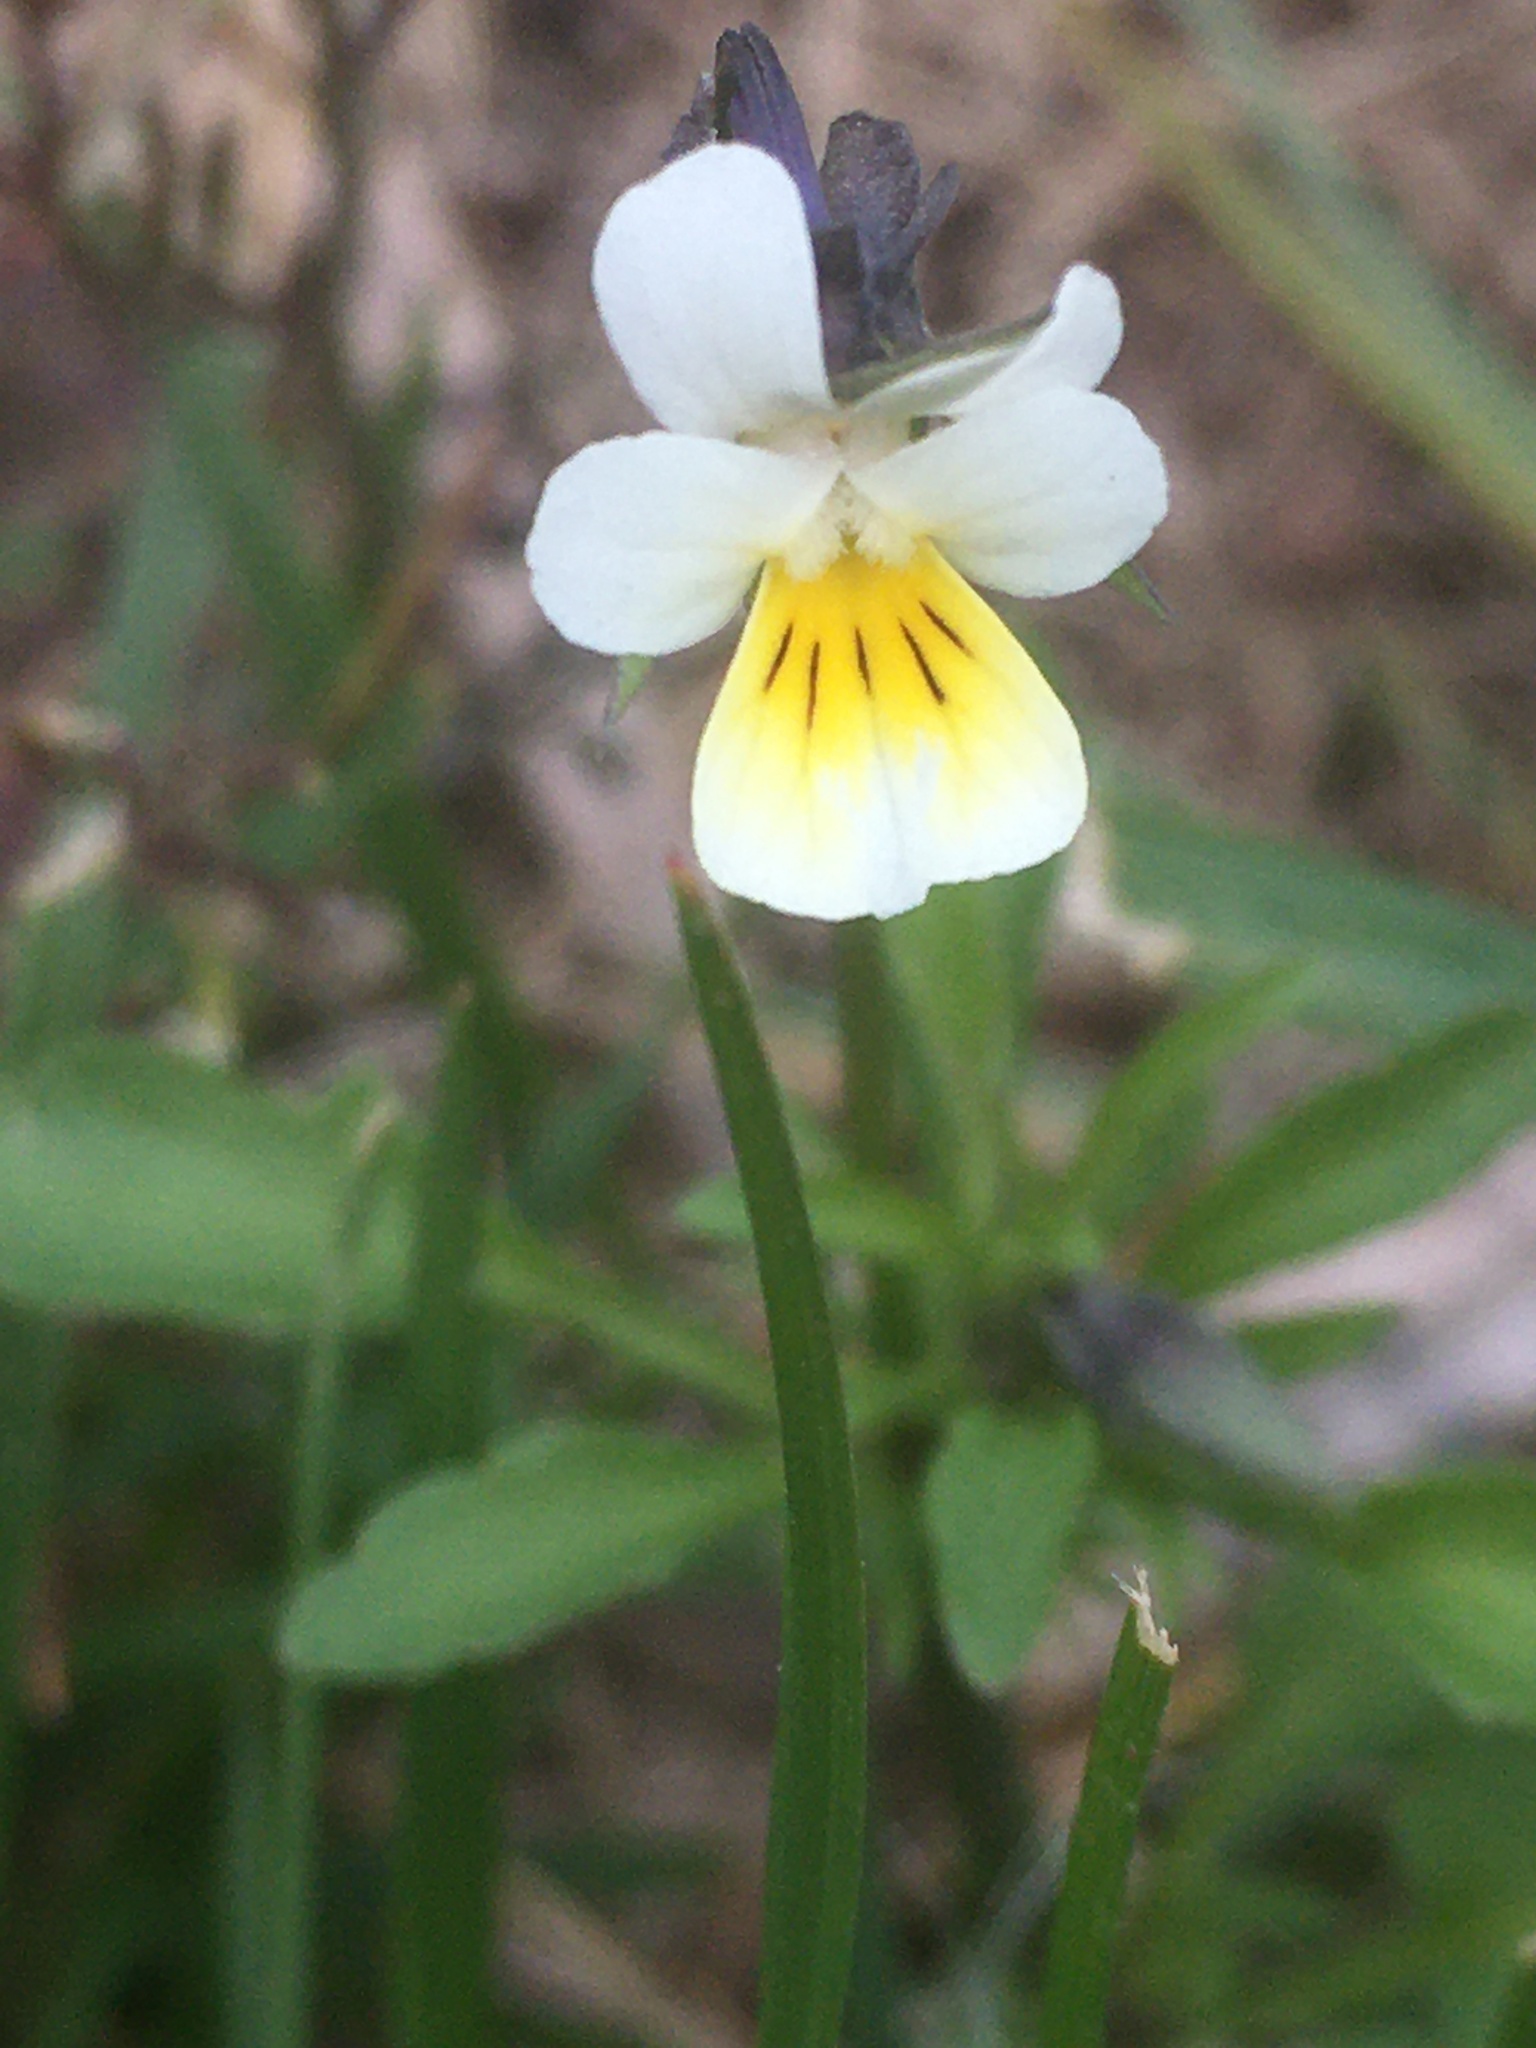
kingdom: Plantae
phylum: Tracheophyta
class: Magnoliopsida
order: Malpighiales
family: Violaceae
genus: Viola
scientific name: Viola arvensis
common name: Field pansy
